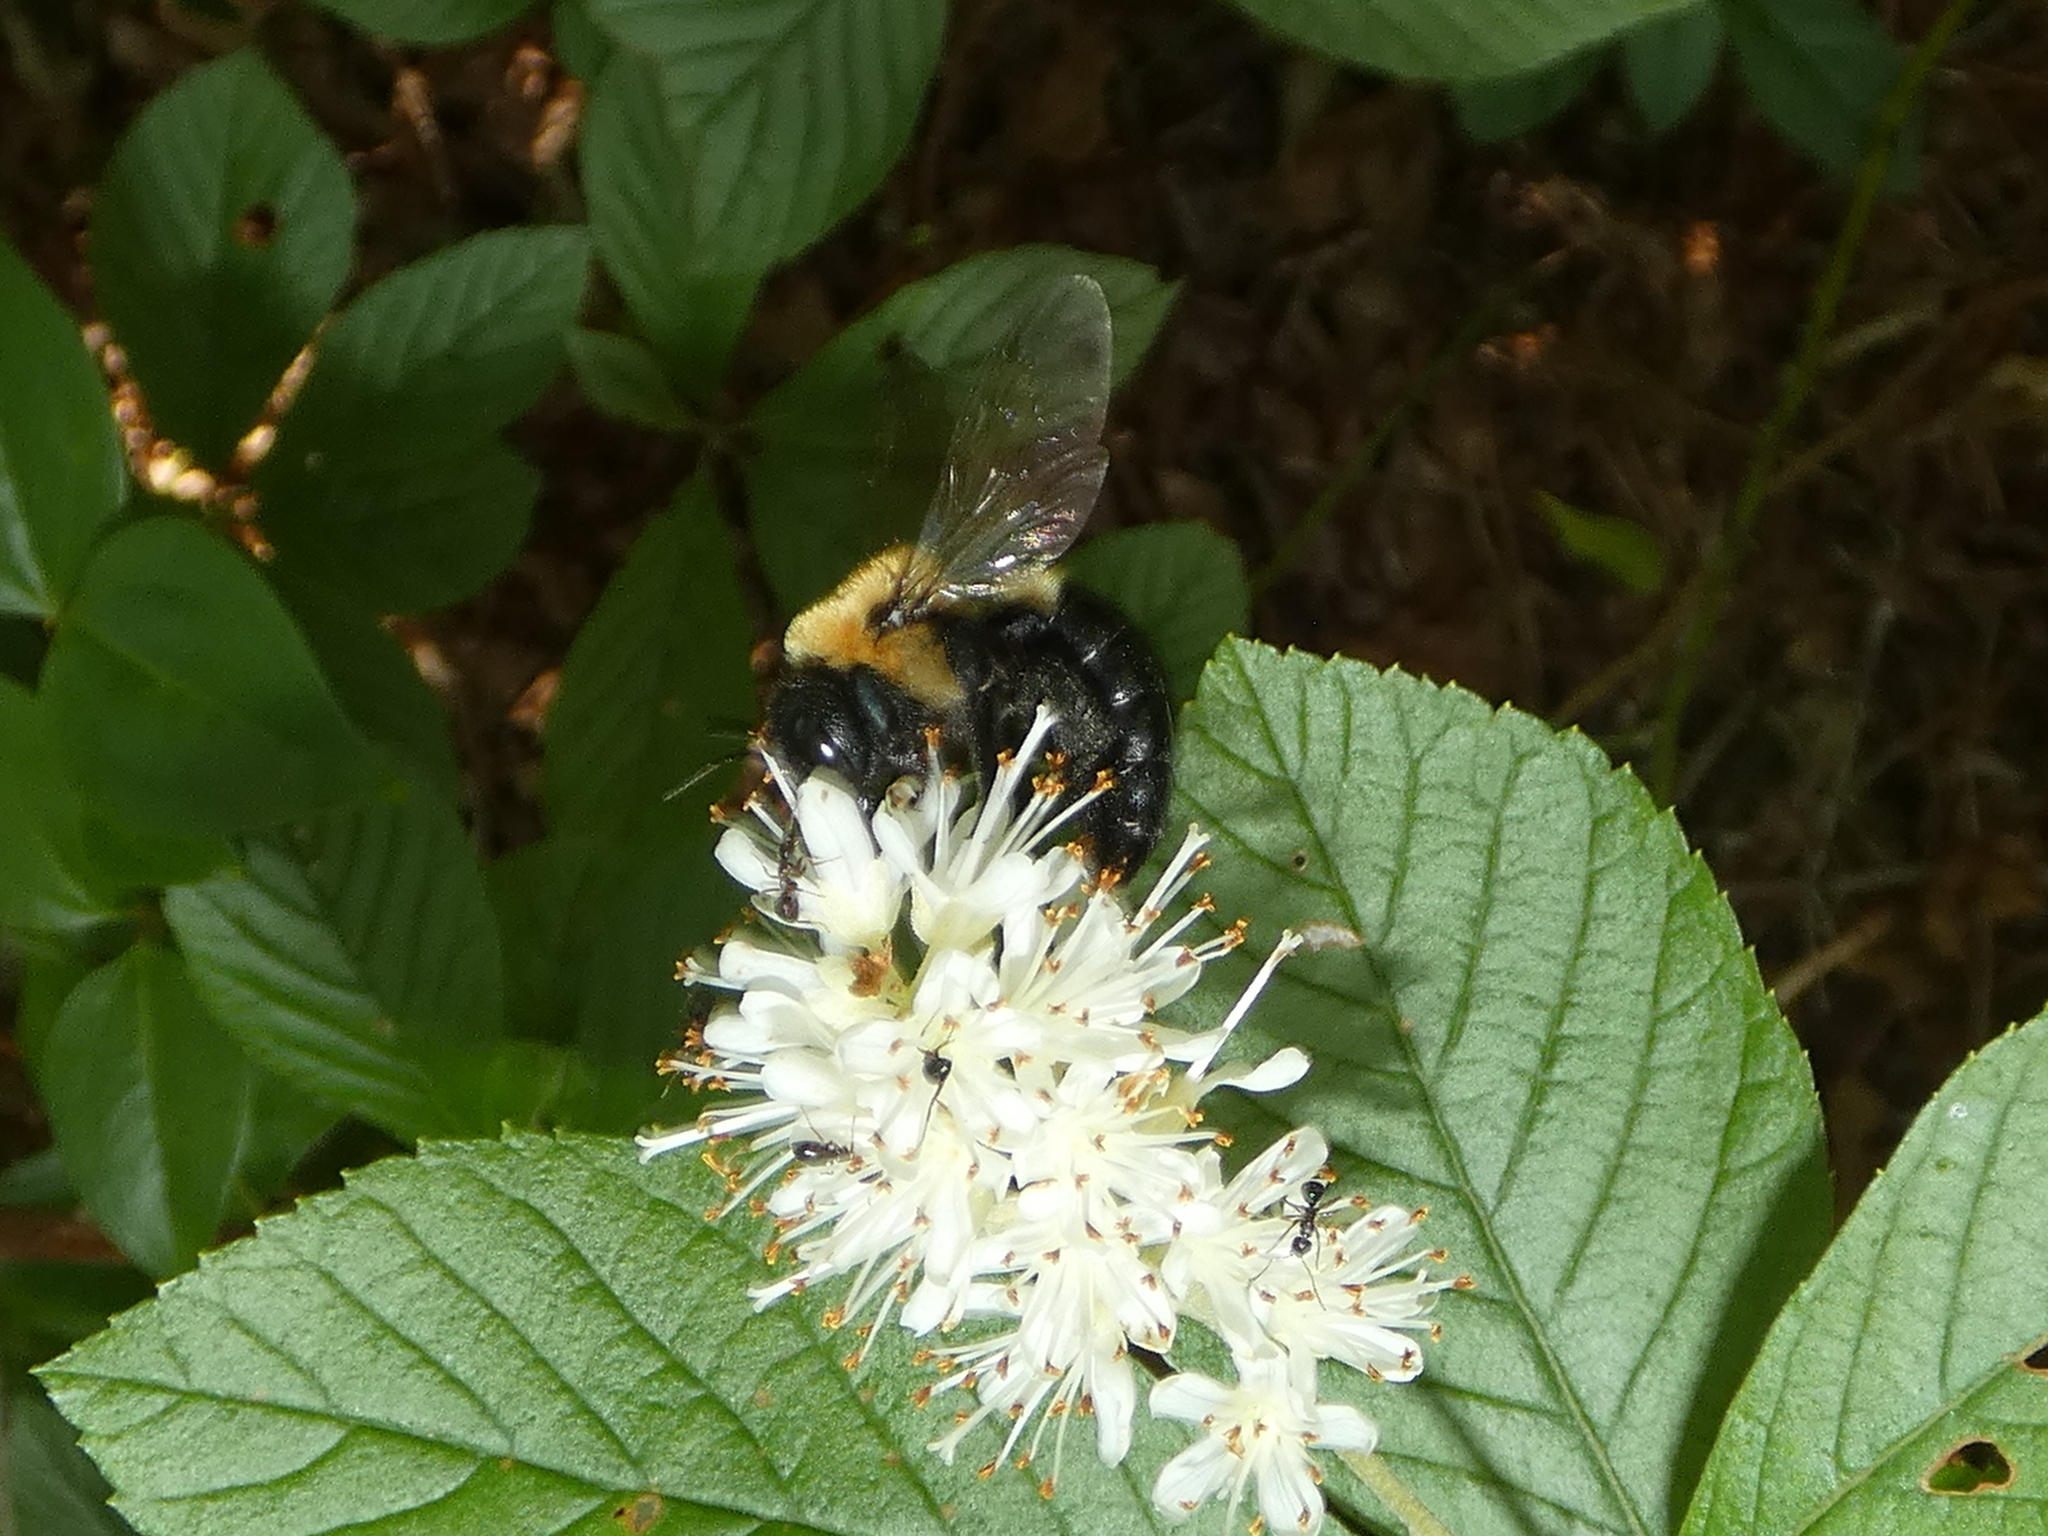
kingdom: Animalia
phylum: Arthropoda
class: Insecta
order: Hymenoptera
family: Apidae
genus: Xylocopa
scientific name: Xylocopa virginica
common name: Carpenter bee
